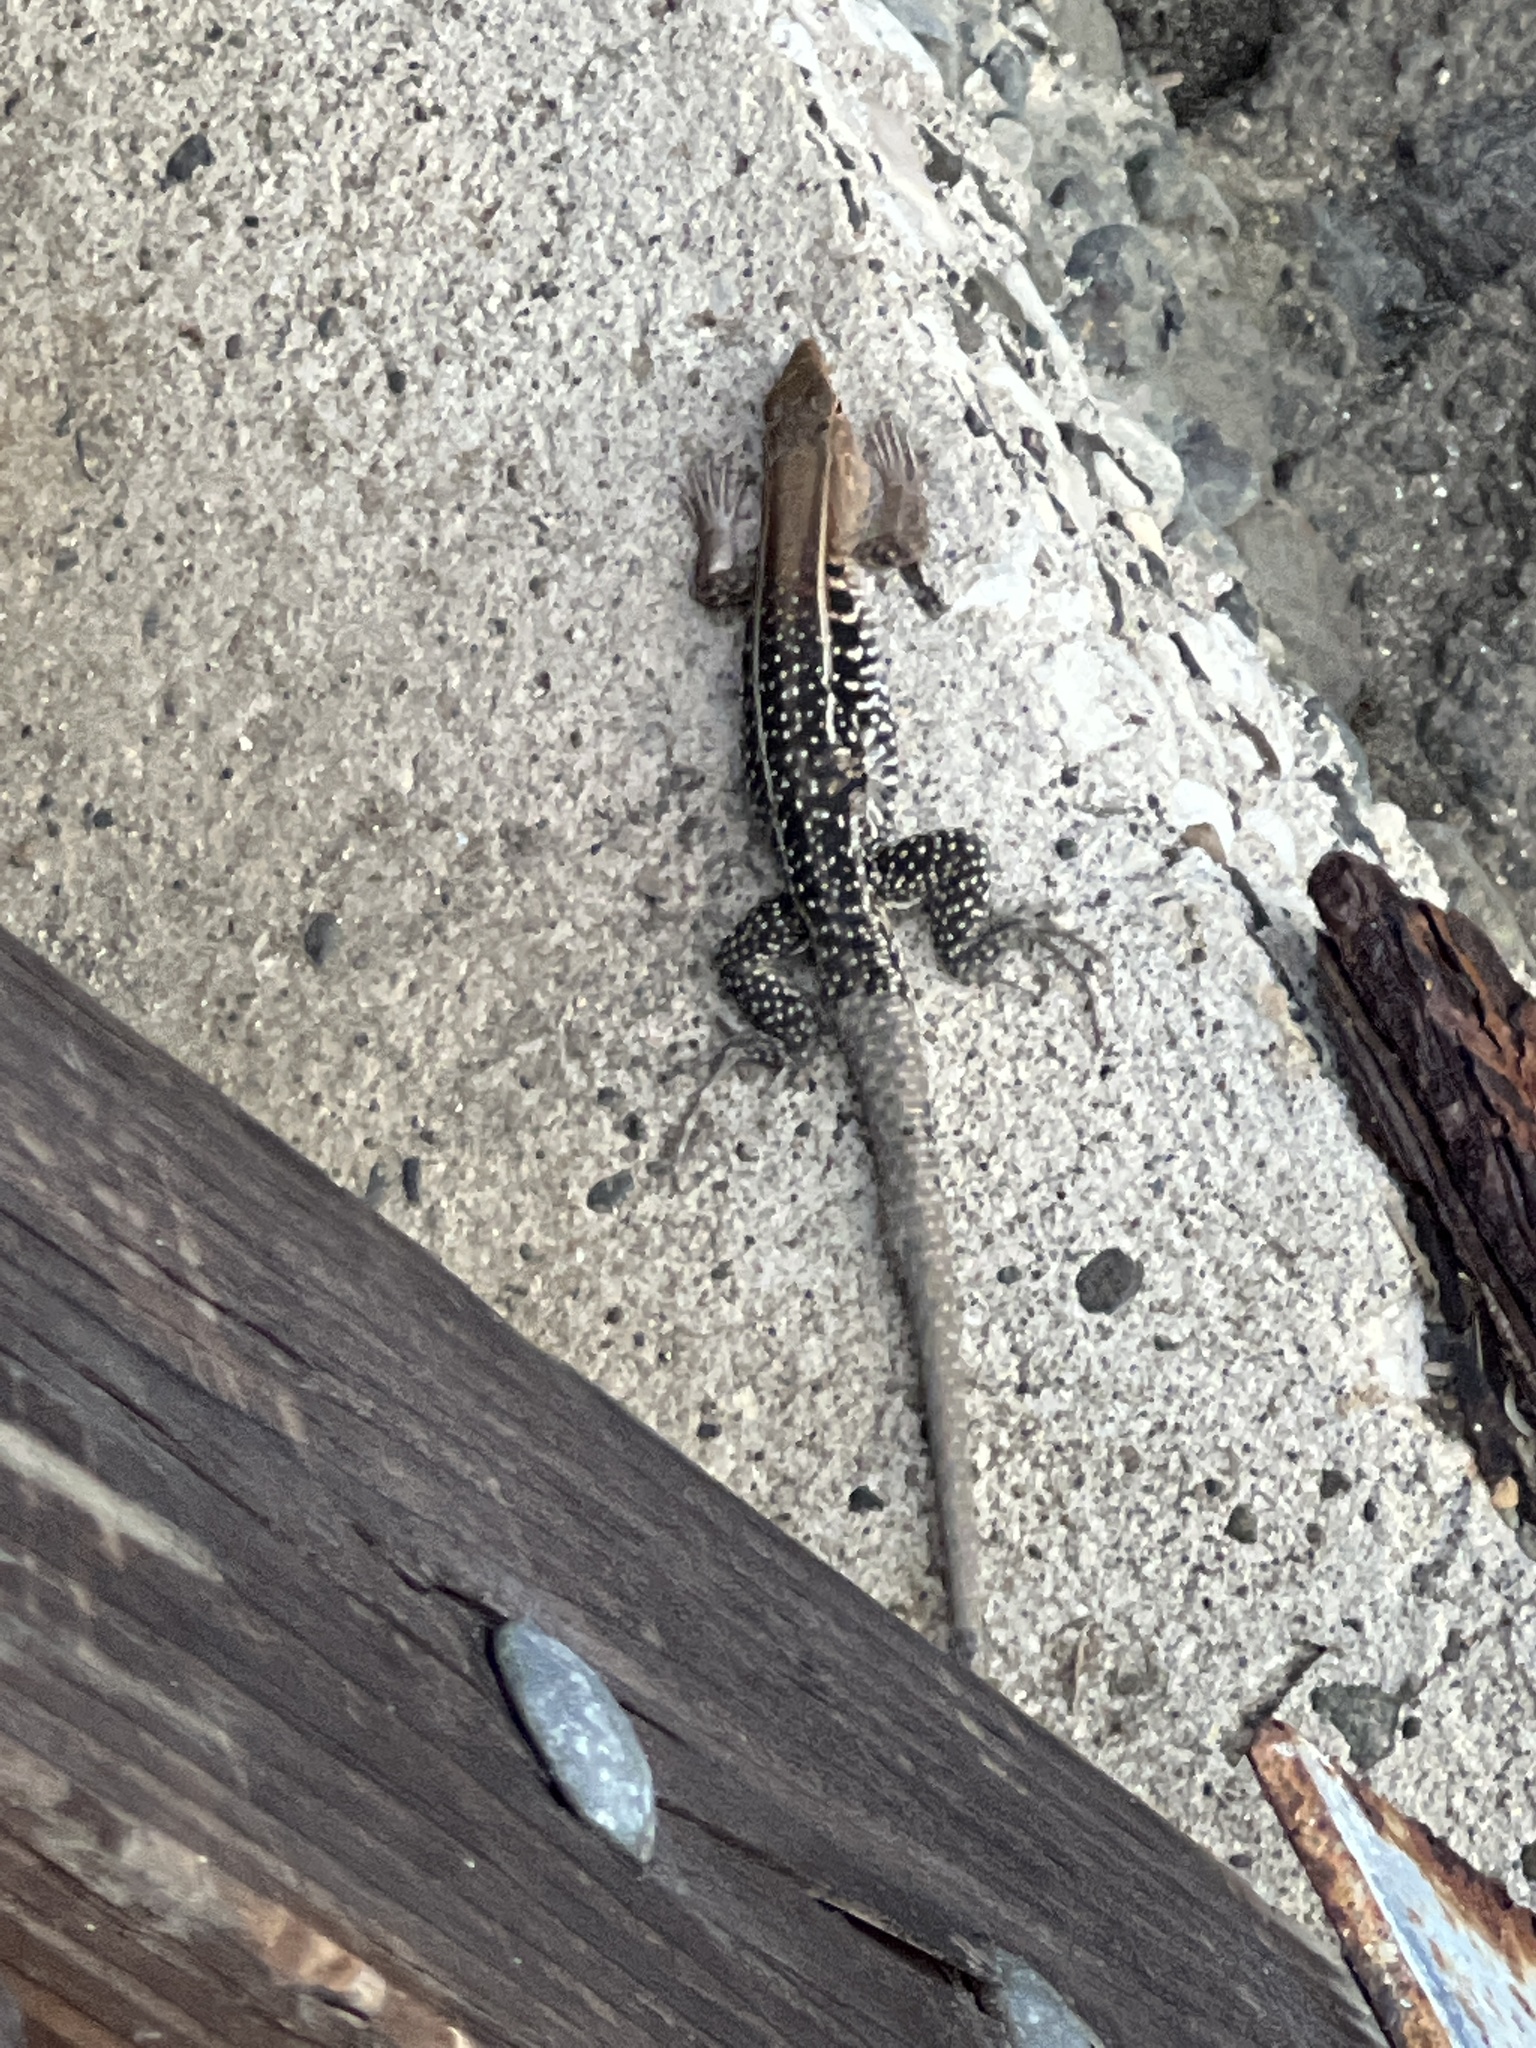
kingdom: Animalia
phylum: Chordata
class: Squamata
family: Teiidae
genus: Pholidoscelis
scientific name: Pholidoscelis exsul
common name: Common puerto rican ameiva
